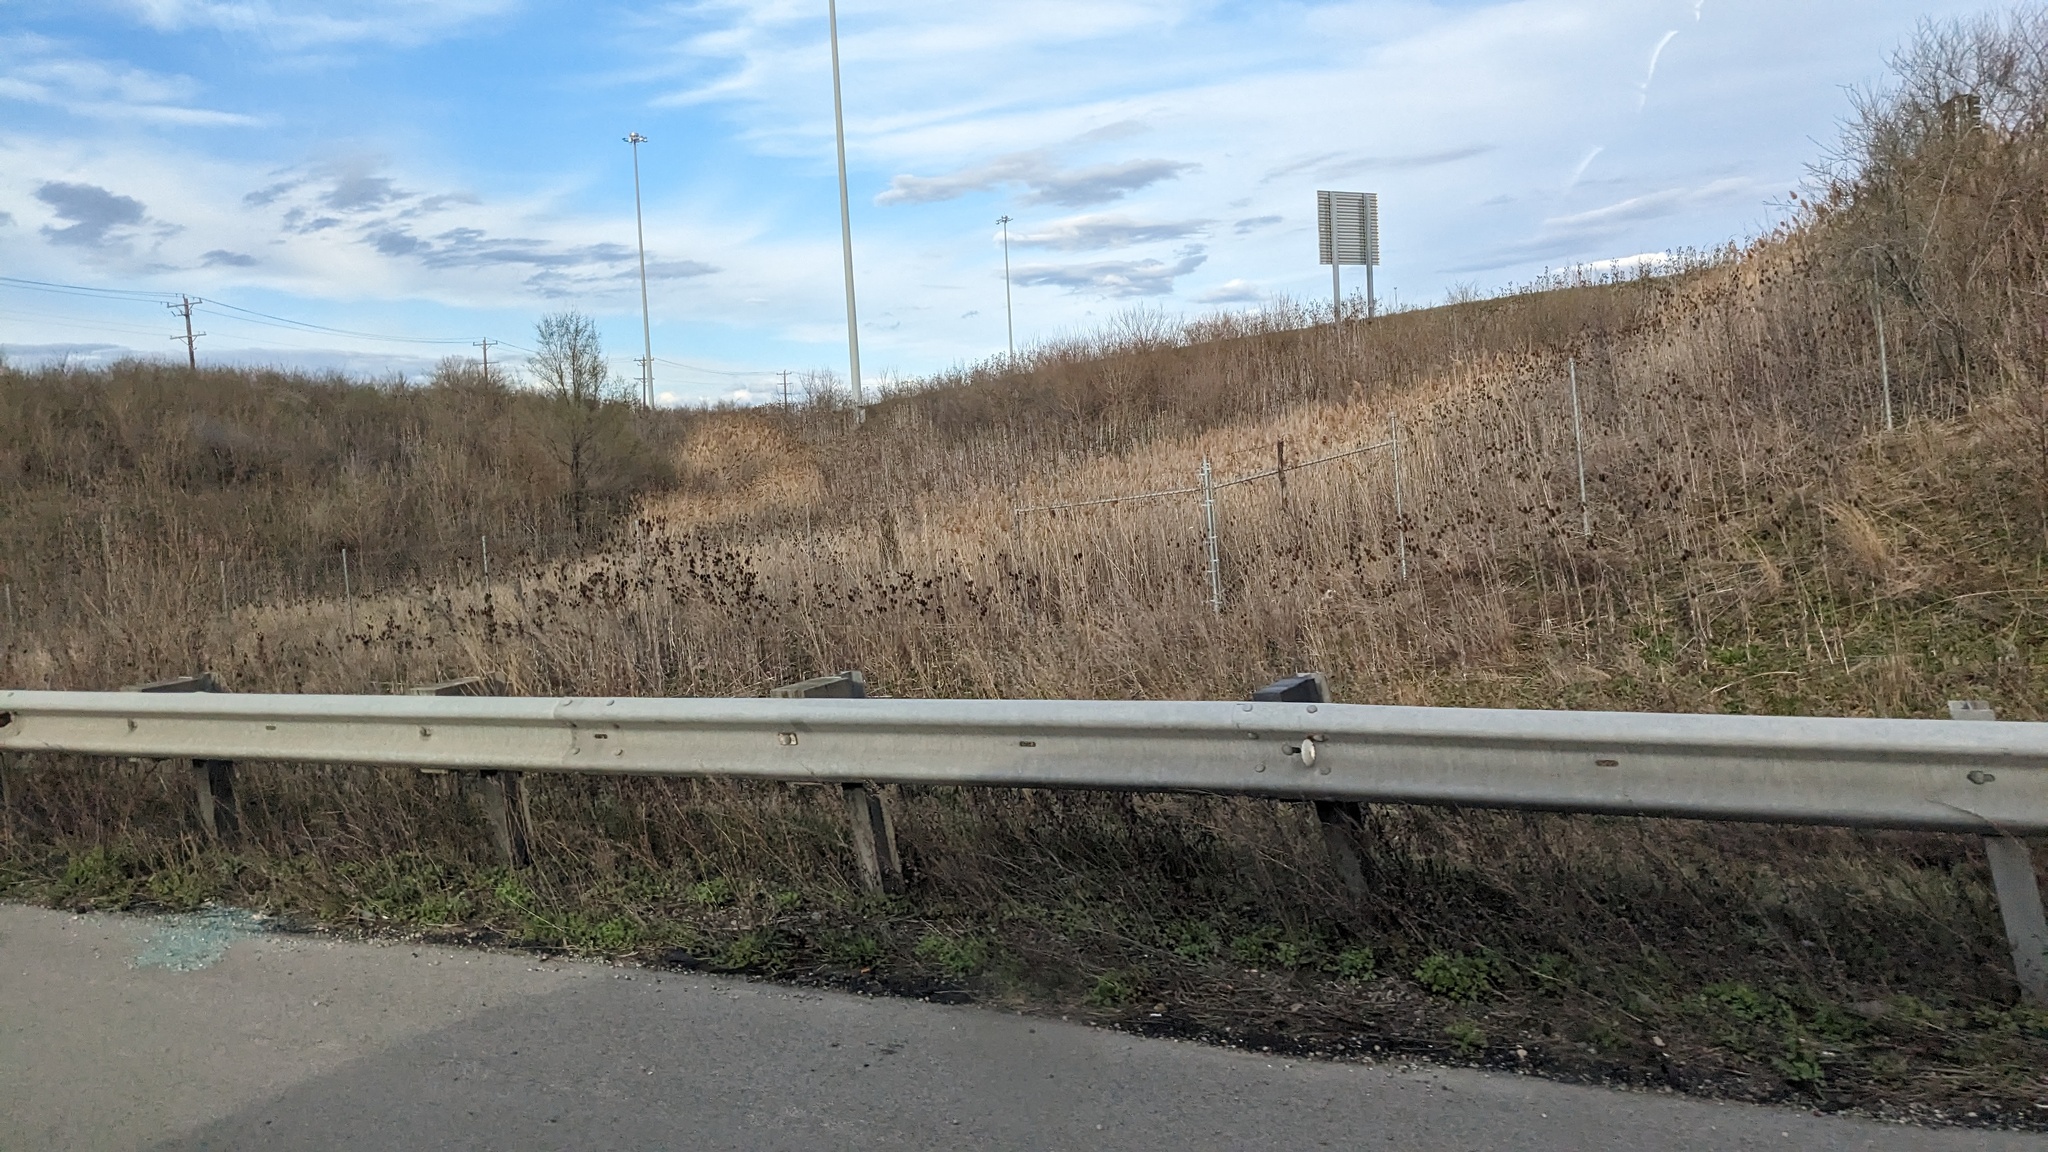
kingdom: Plantae
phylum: Tracheophyta
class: Magnoliopsida
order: Dipsacales
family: Caprifoliaceae
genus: Dipsacus
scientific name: Dipsacus laciniatus
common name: Cut-leaved teasel
